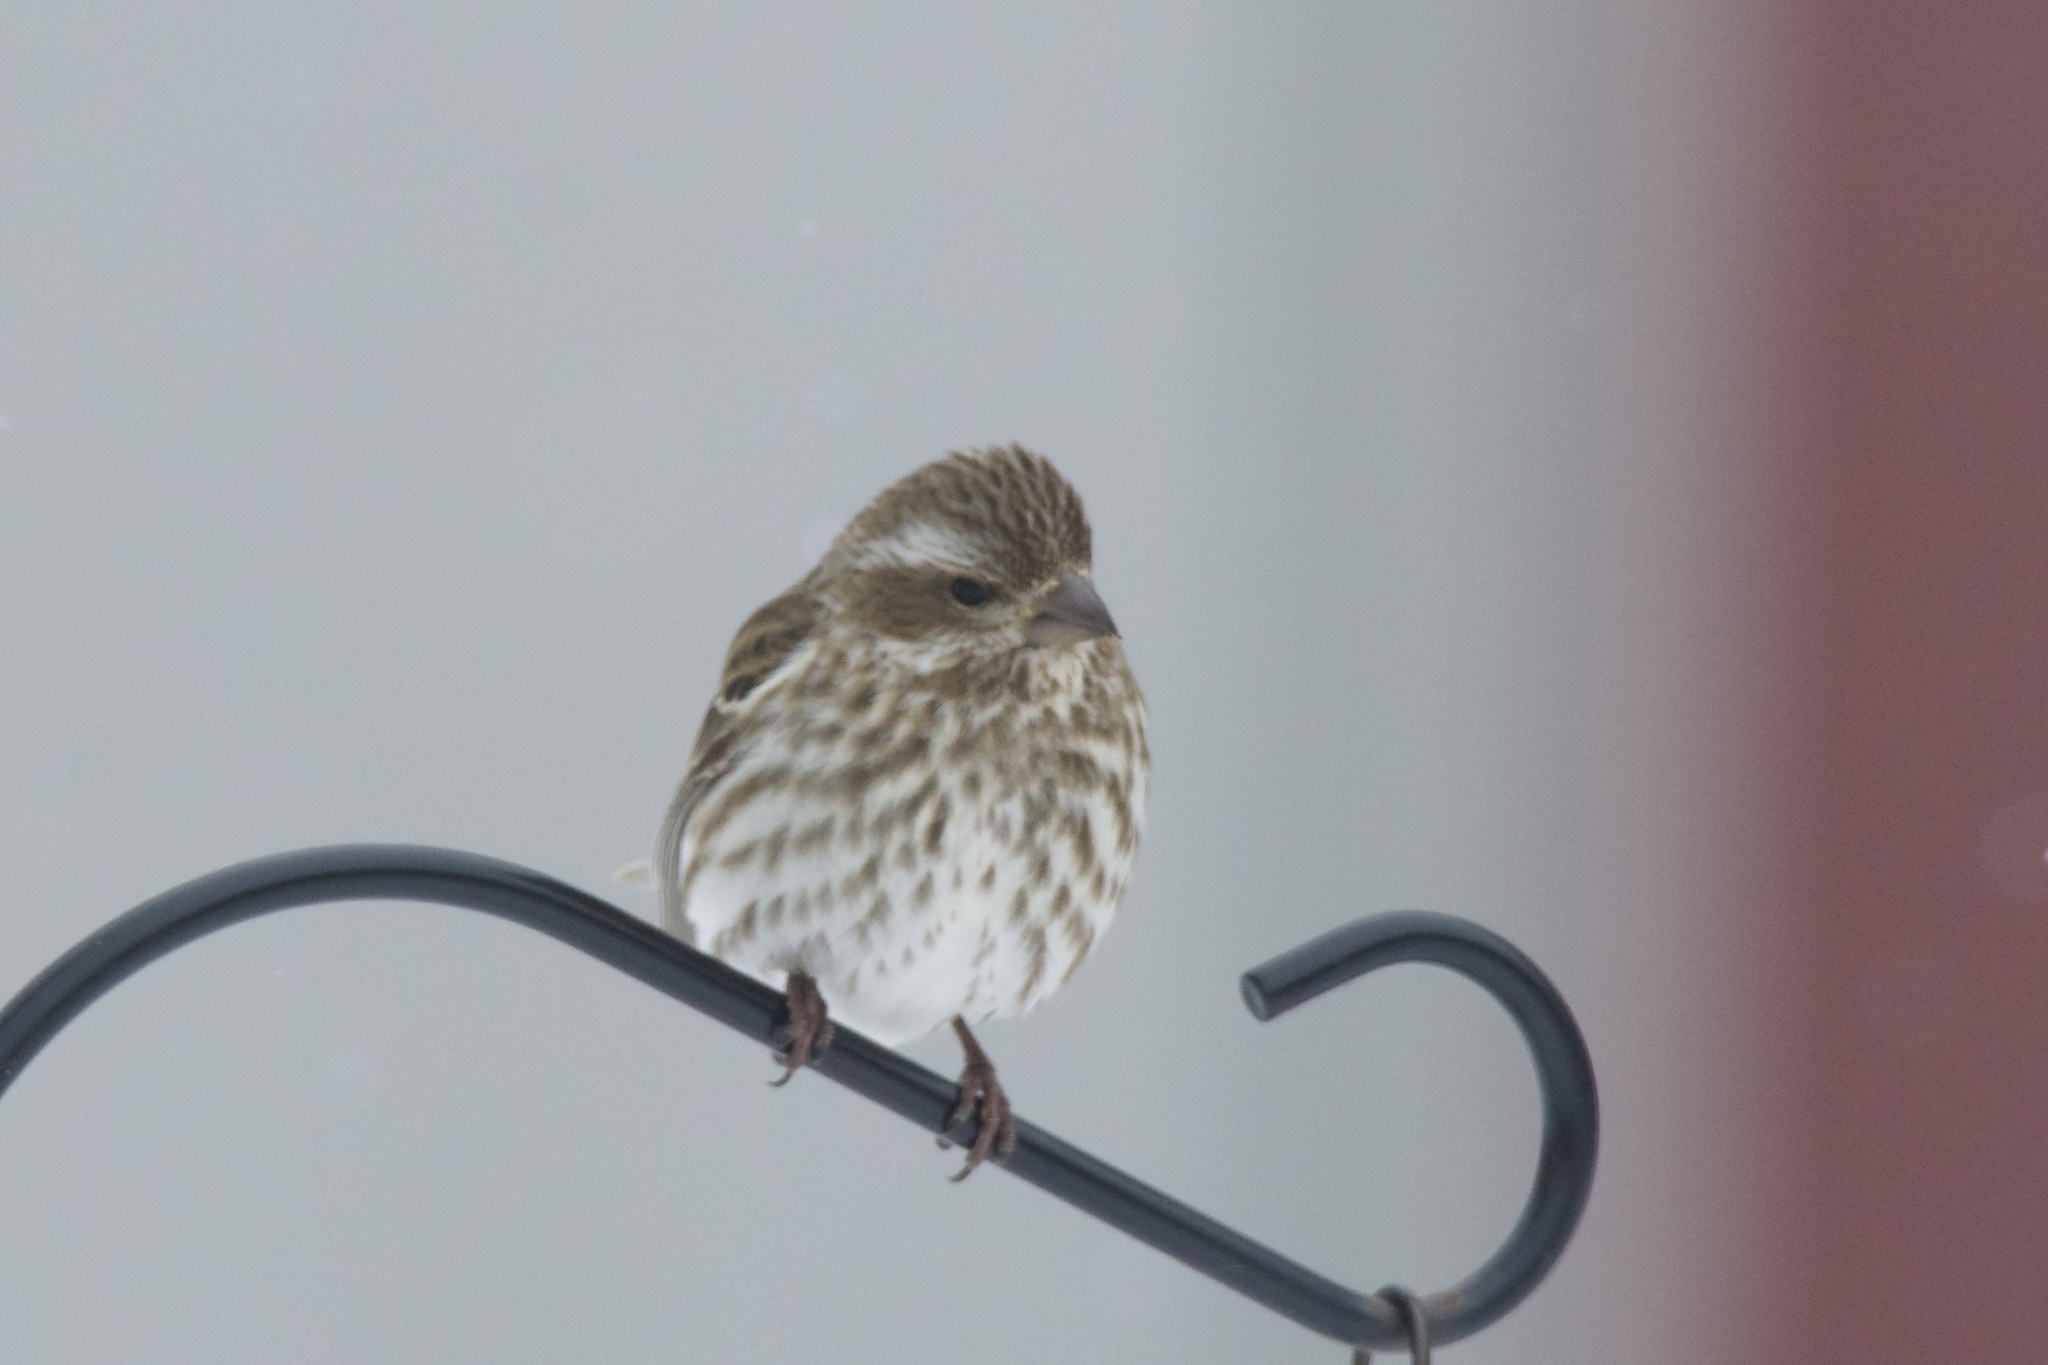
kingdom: Animalia
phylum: Chordata
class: Aves
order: Passeriformes
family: Fringillidae
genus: Haemorhous
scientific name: Haemorhous purpureus
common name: Purple finch
